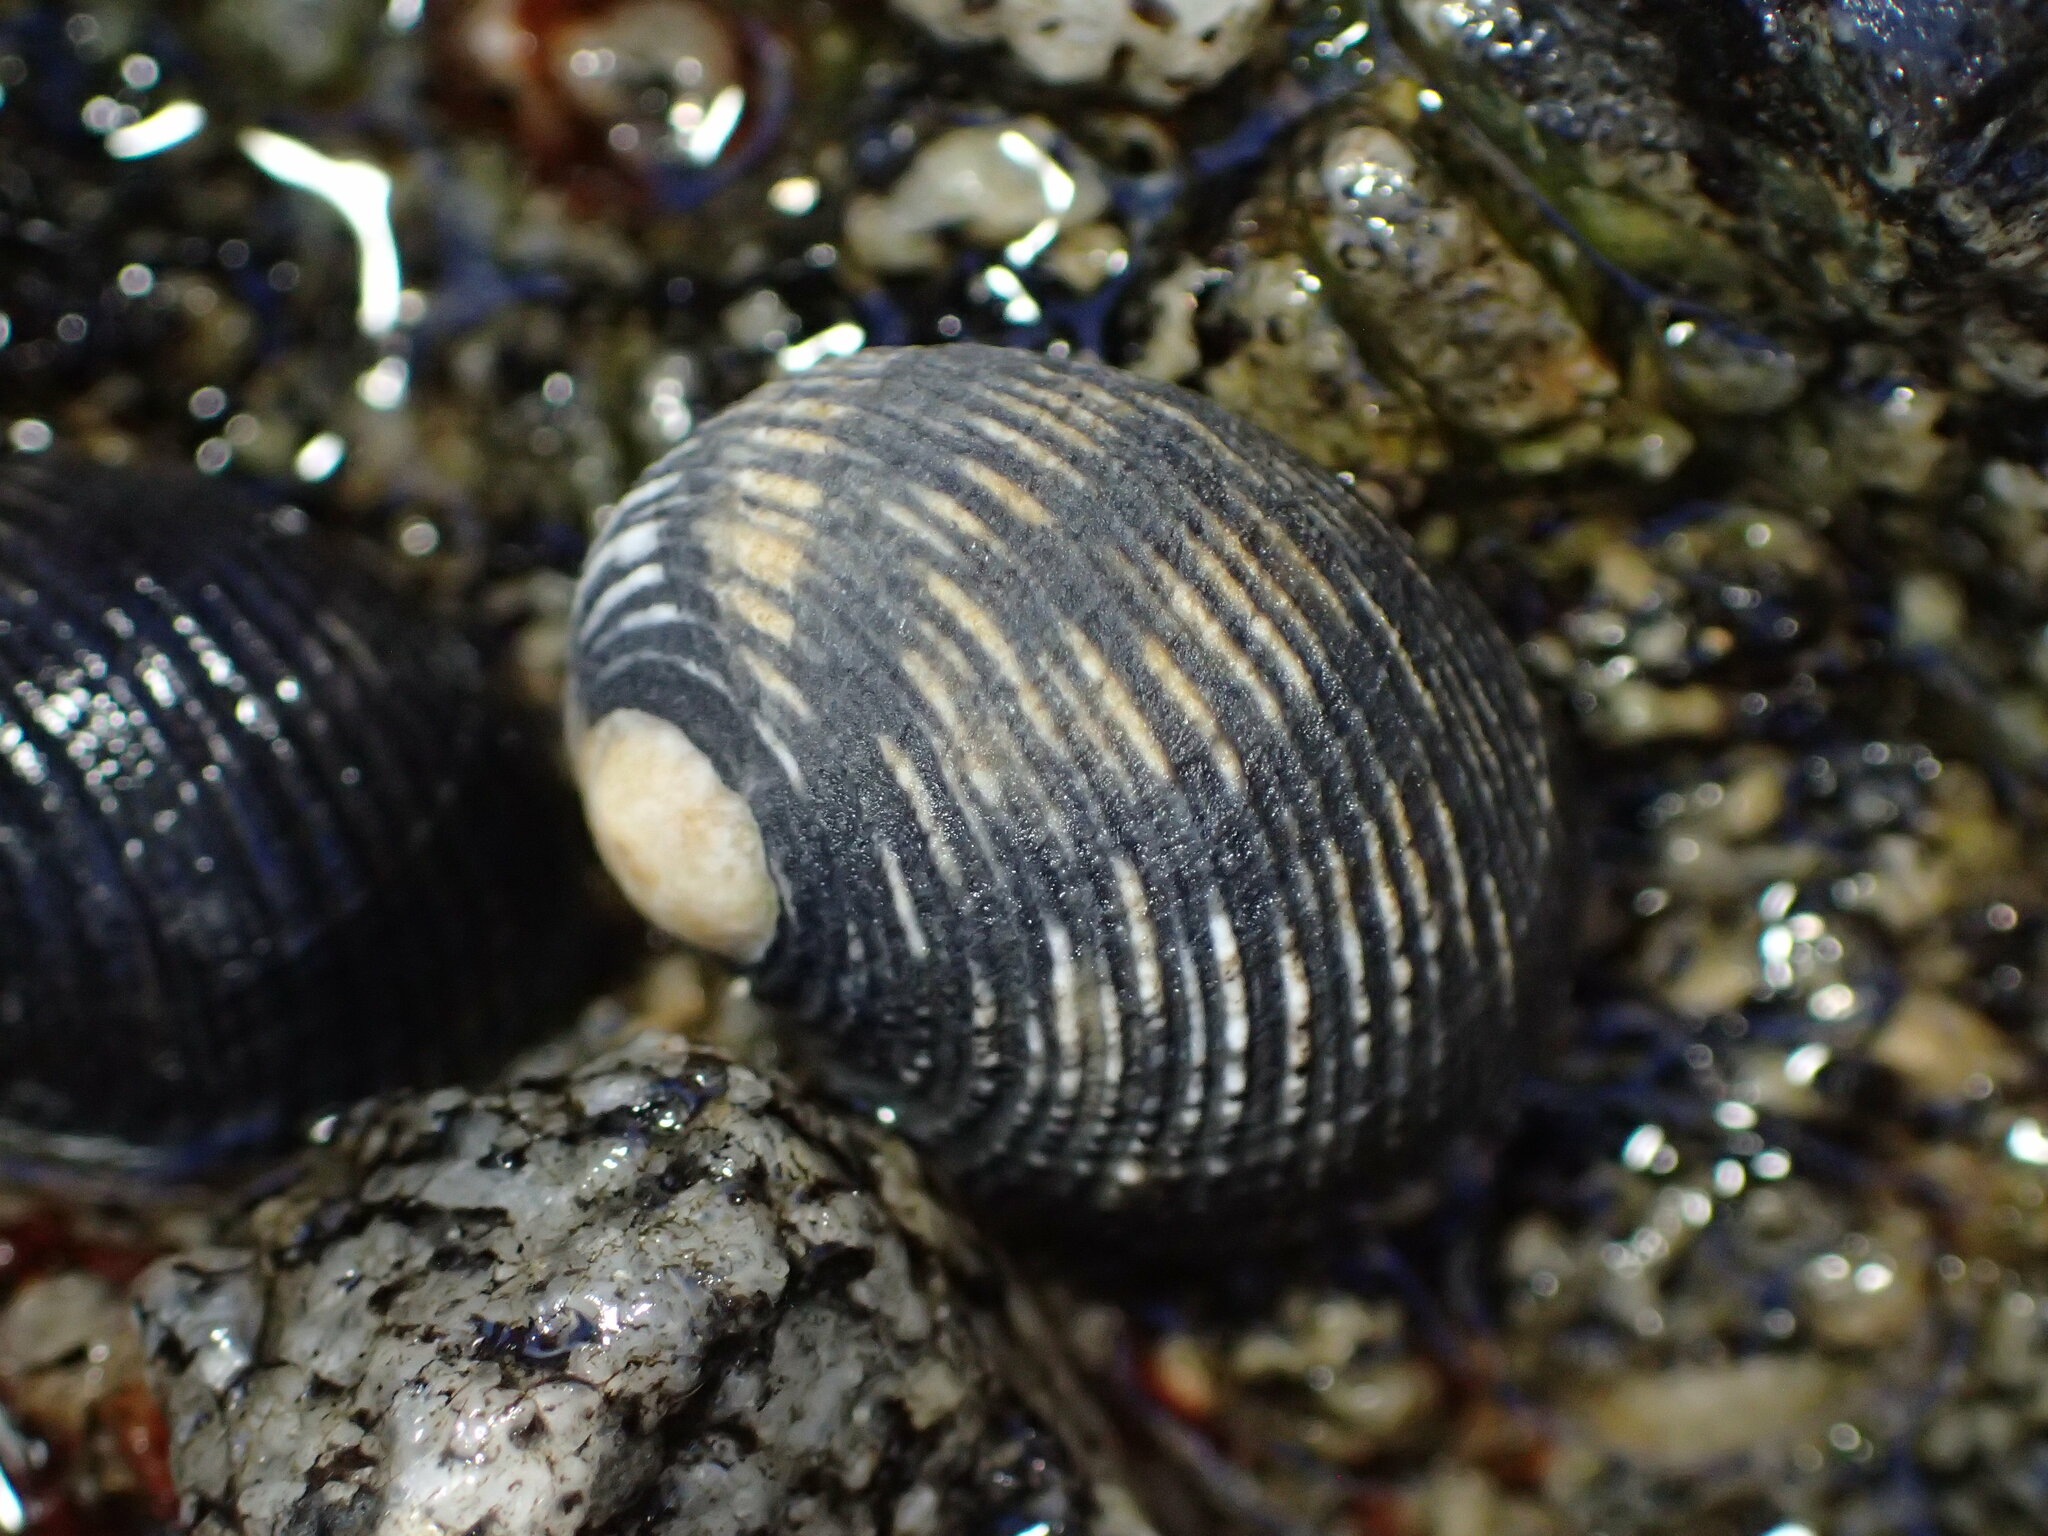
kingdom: Animalia
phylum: Mollusca
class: Gastropoda
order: Cycloneritida
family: Neritidae
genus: Nerita
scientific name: Nerita scabricosta
